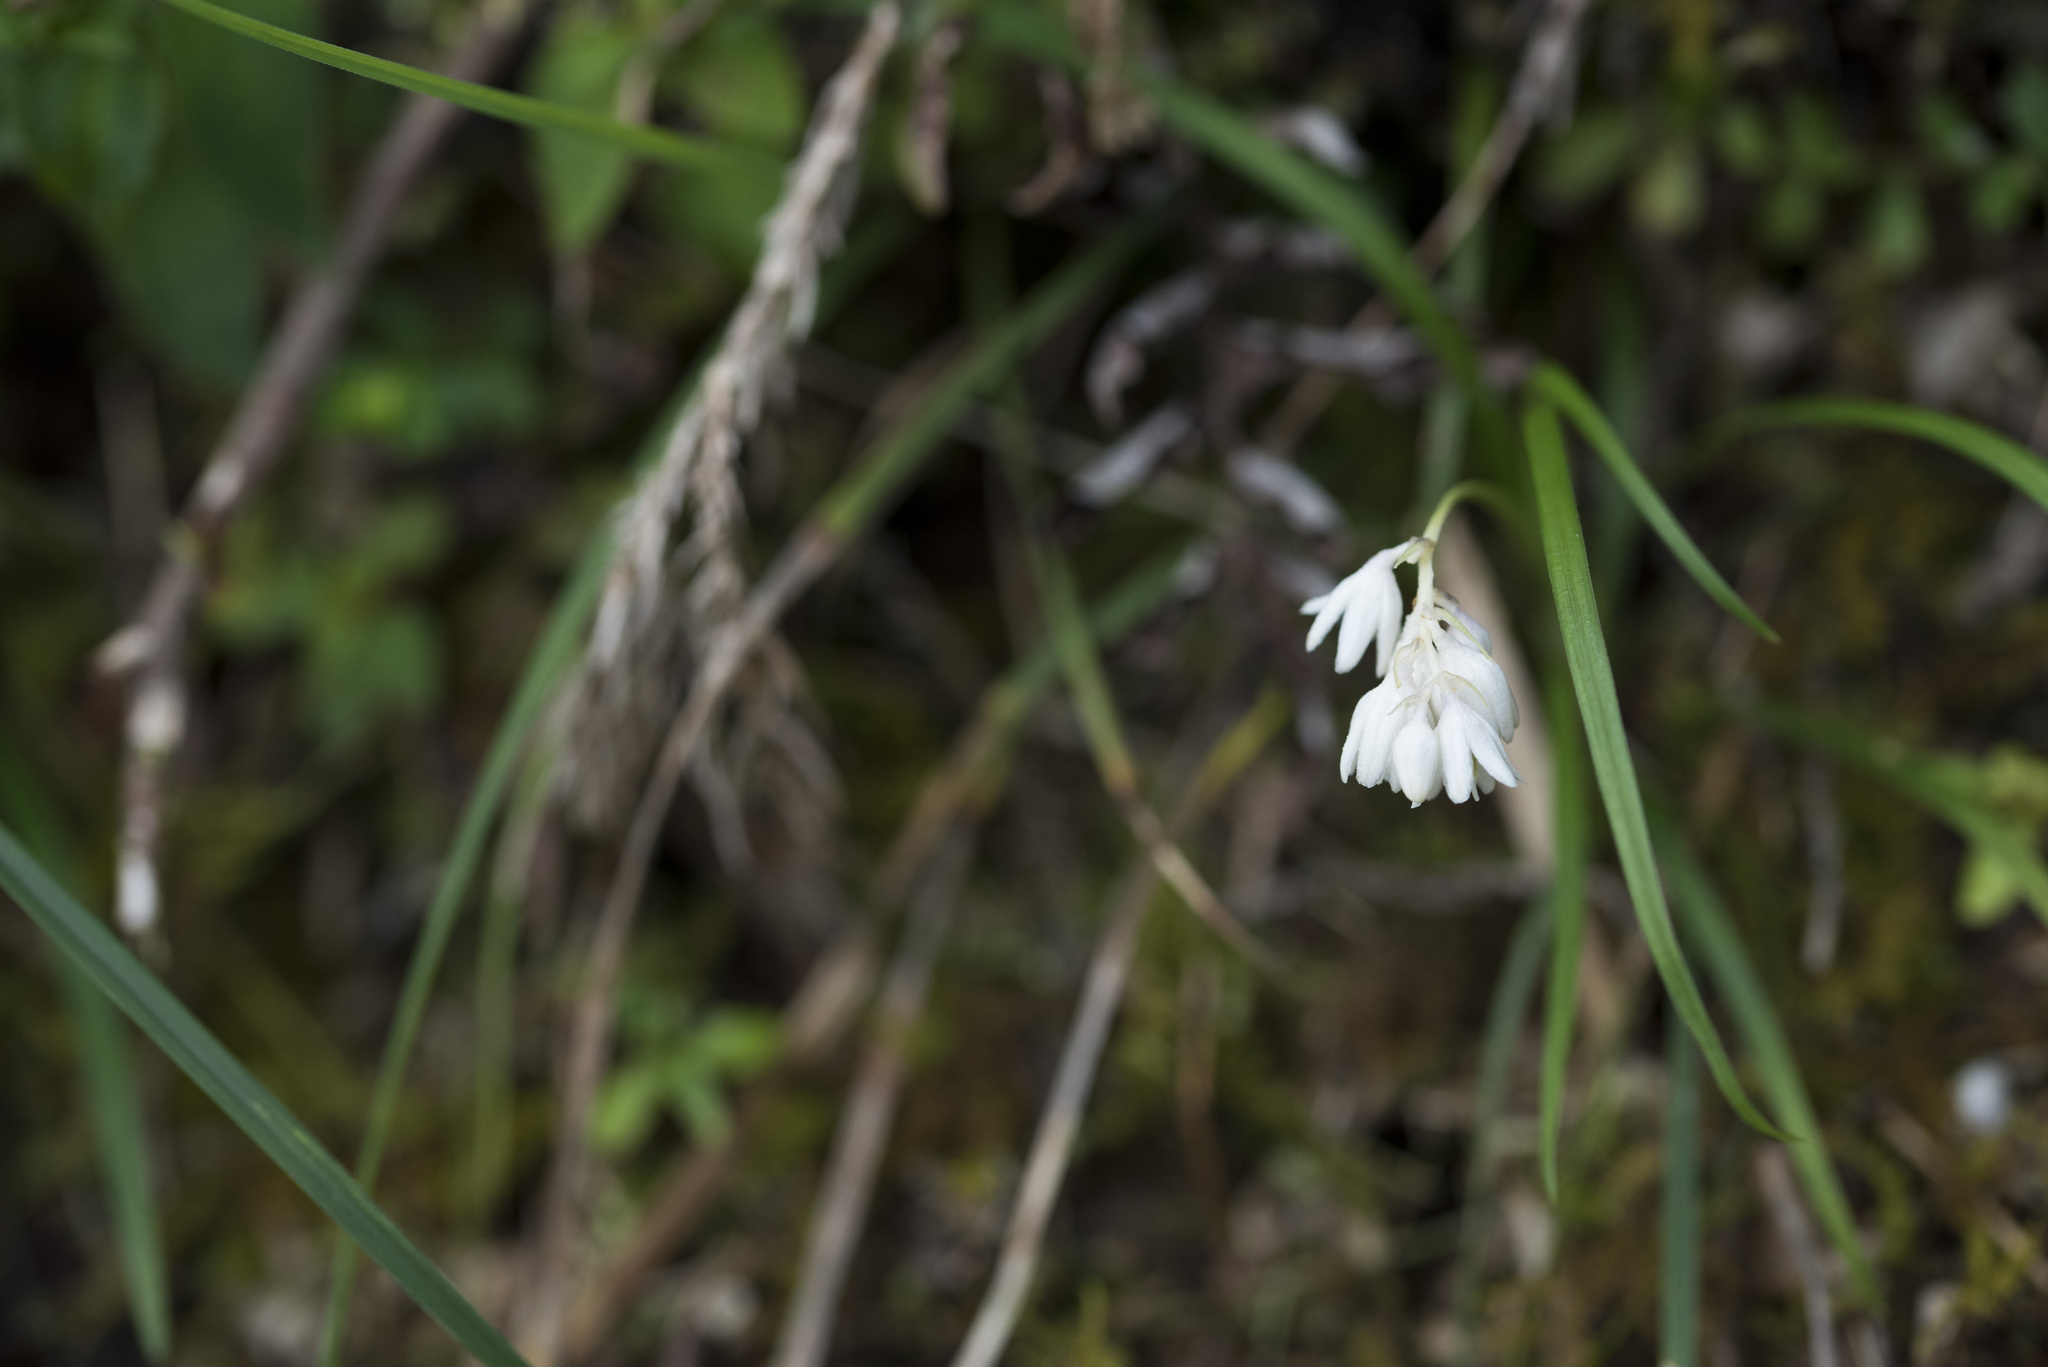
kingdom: Plantae
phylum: Tracheophyta
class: Liliopsida
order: Asparagales
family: Asparagaceae
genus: Ophiopogon
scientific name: Ophiopogon intermedius
